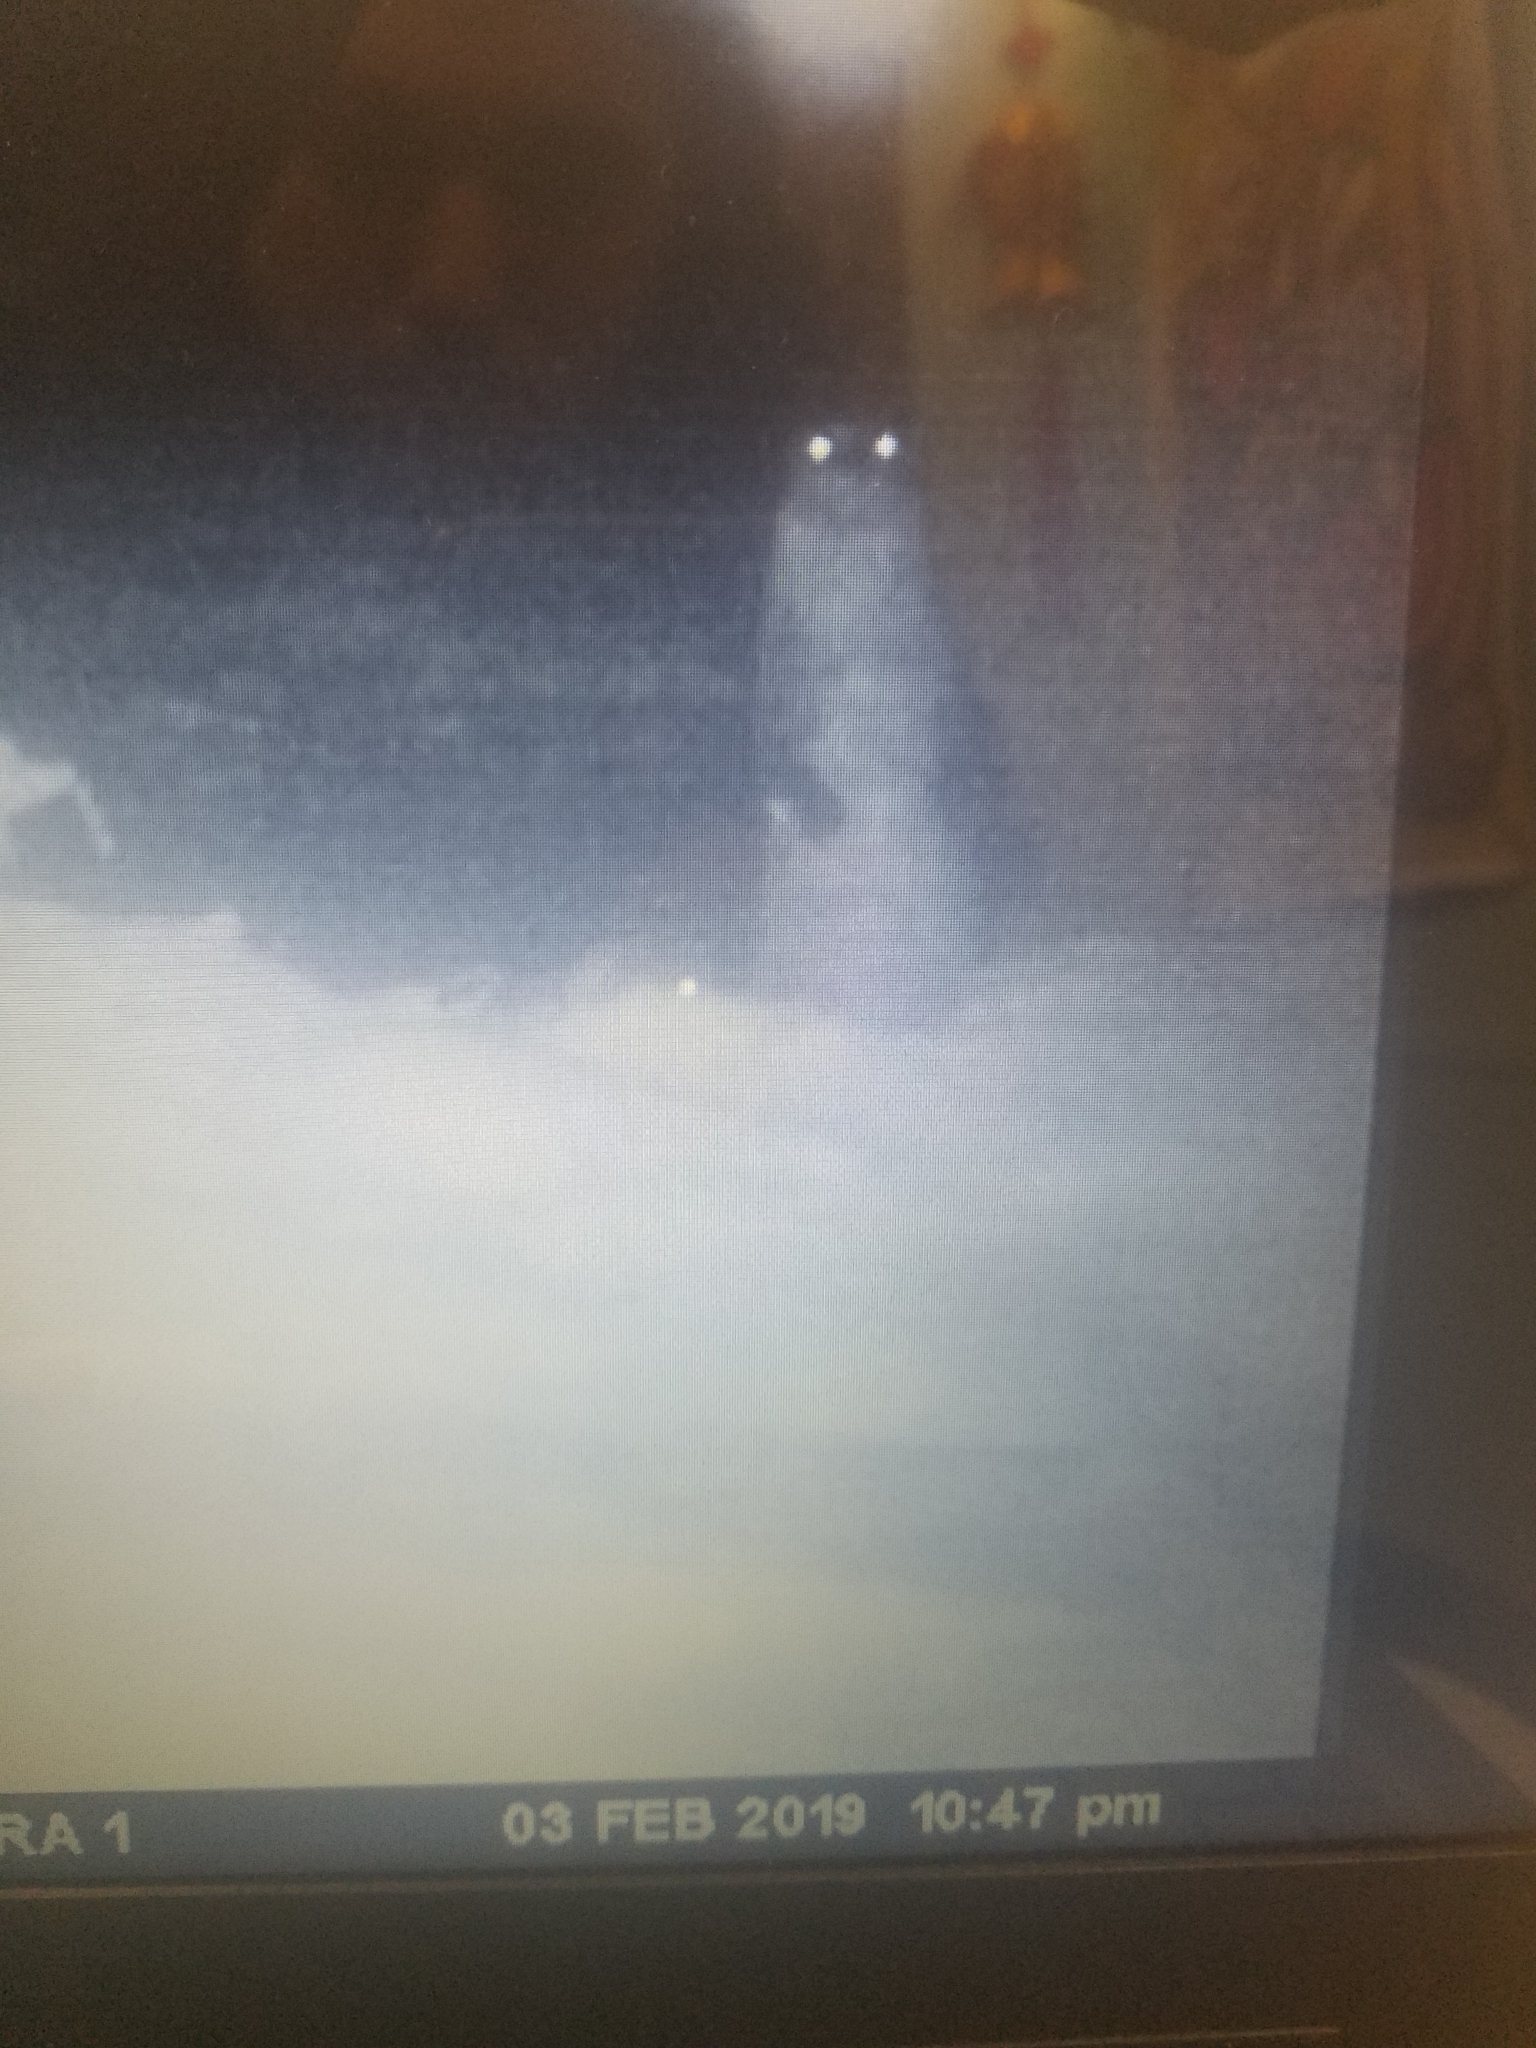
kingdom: Animalia
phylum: Chordata
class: Mammalia
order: Carnivora
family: Mustelidae
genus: Lontra
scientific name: Lontra canadensis
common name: North american river otter
